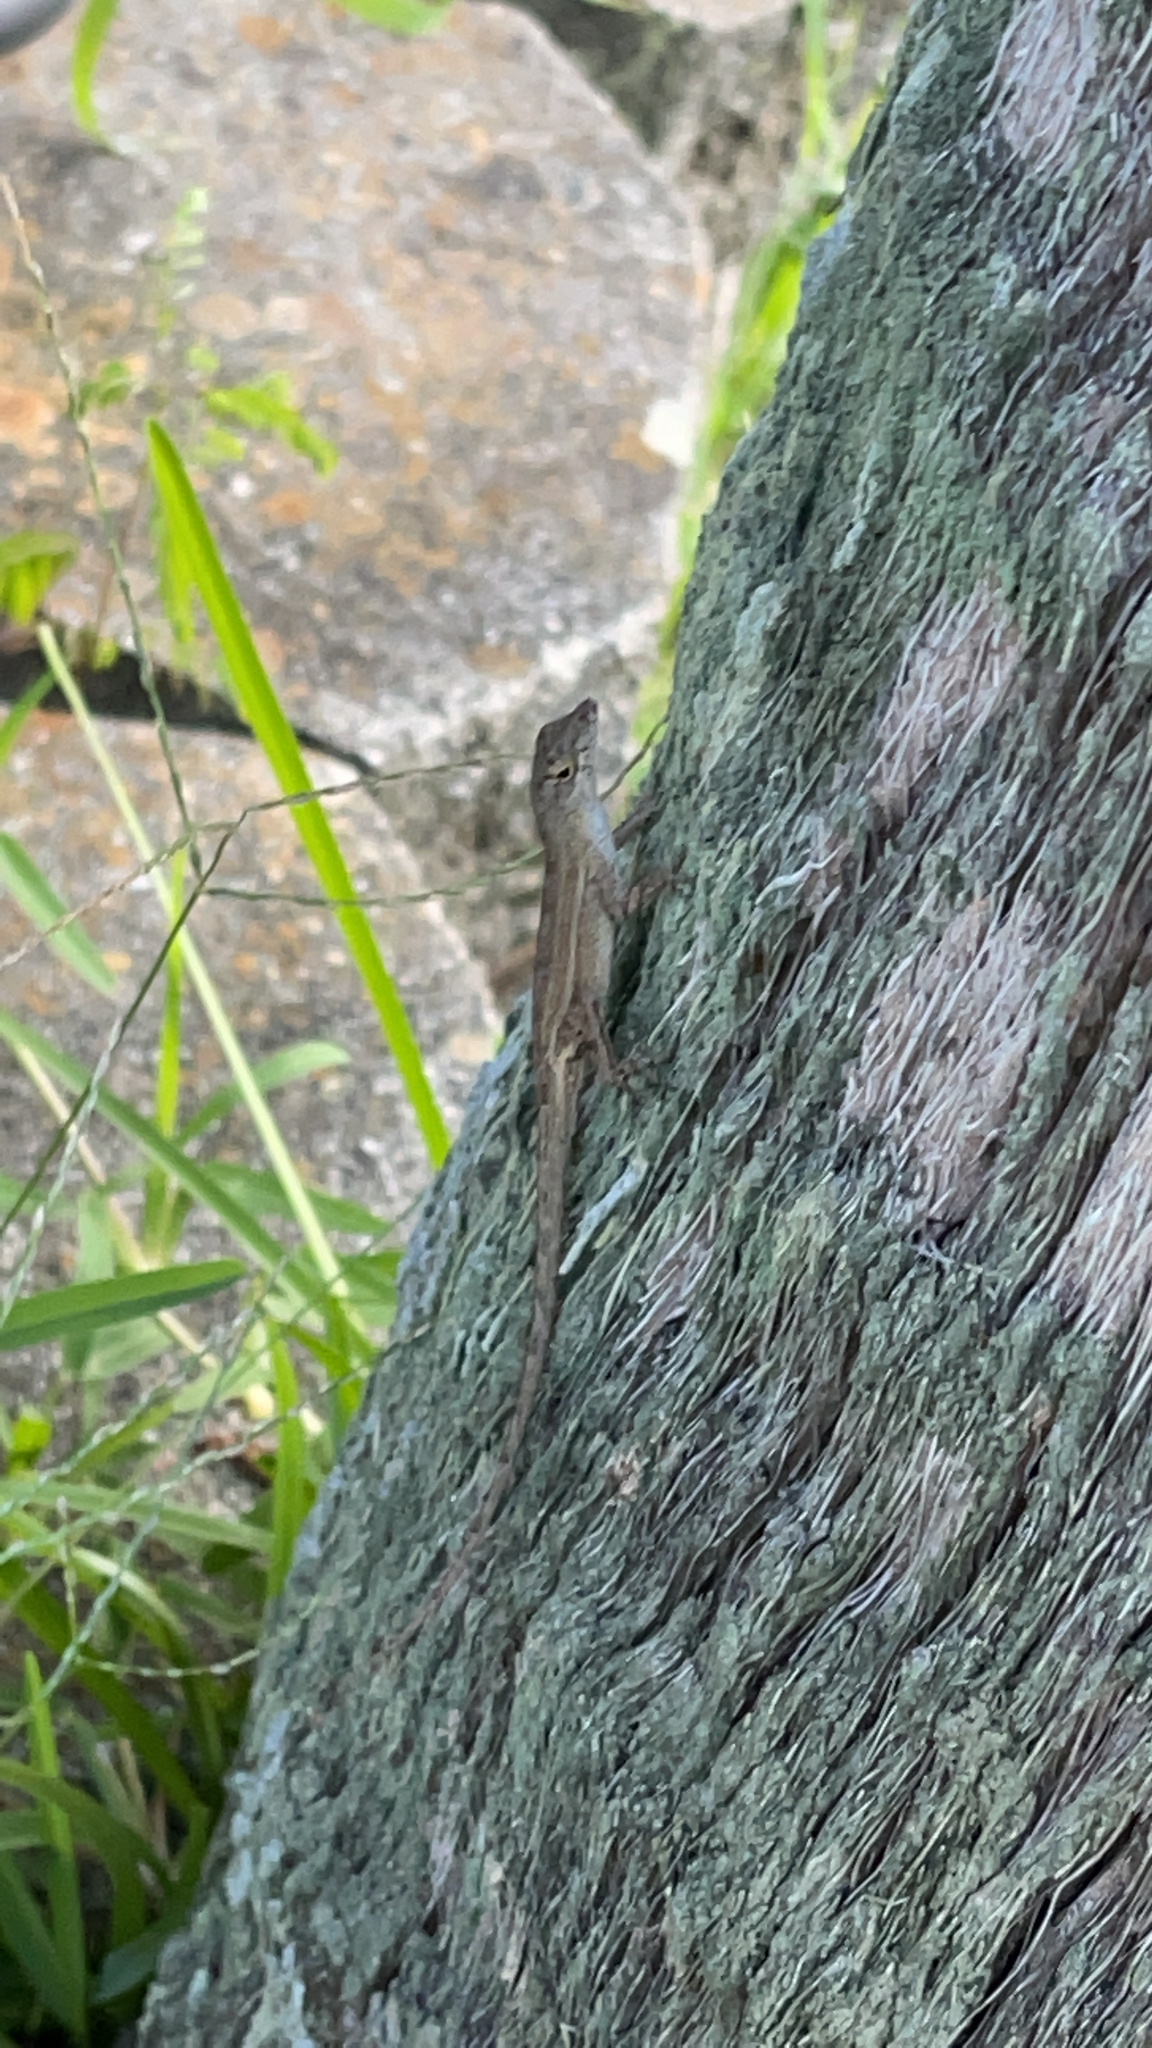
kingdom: Animalia
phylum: Chordata
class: Squamata
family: Dactyloidae
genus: Anolis
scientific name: Anolis sagrei
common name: Brown anole
